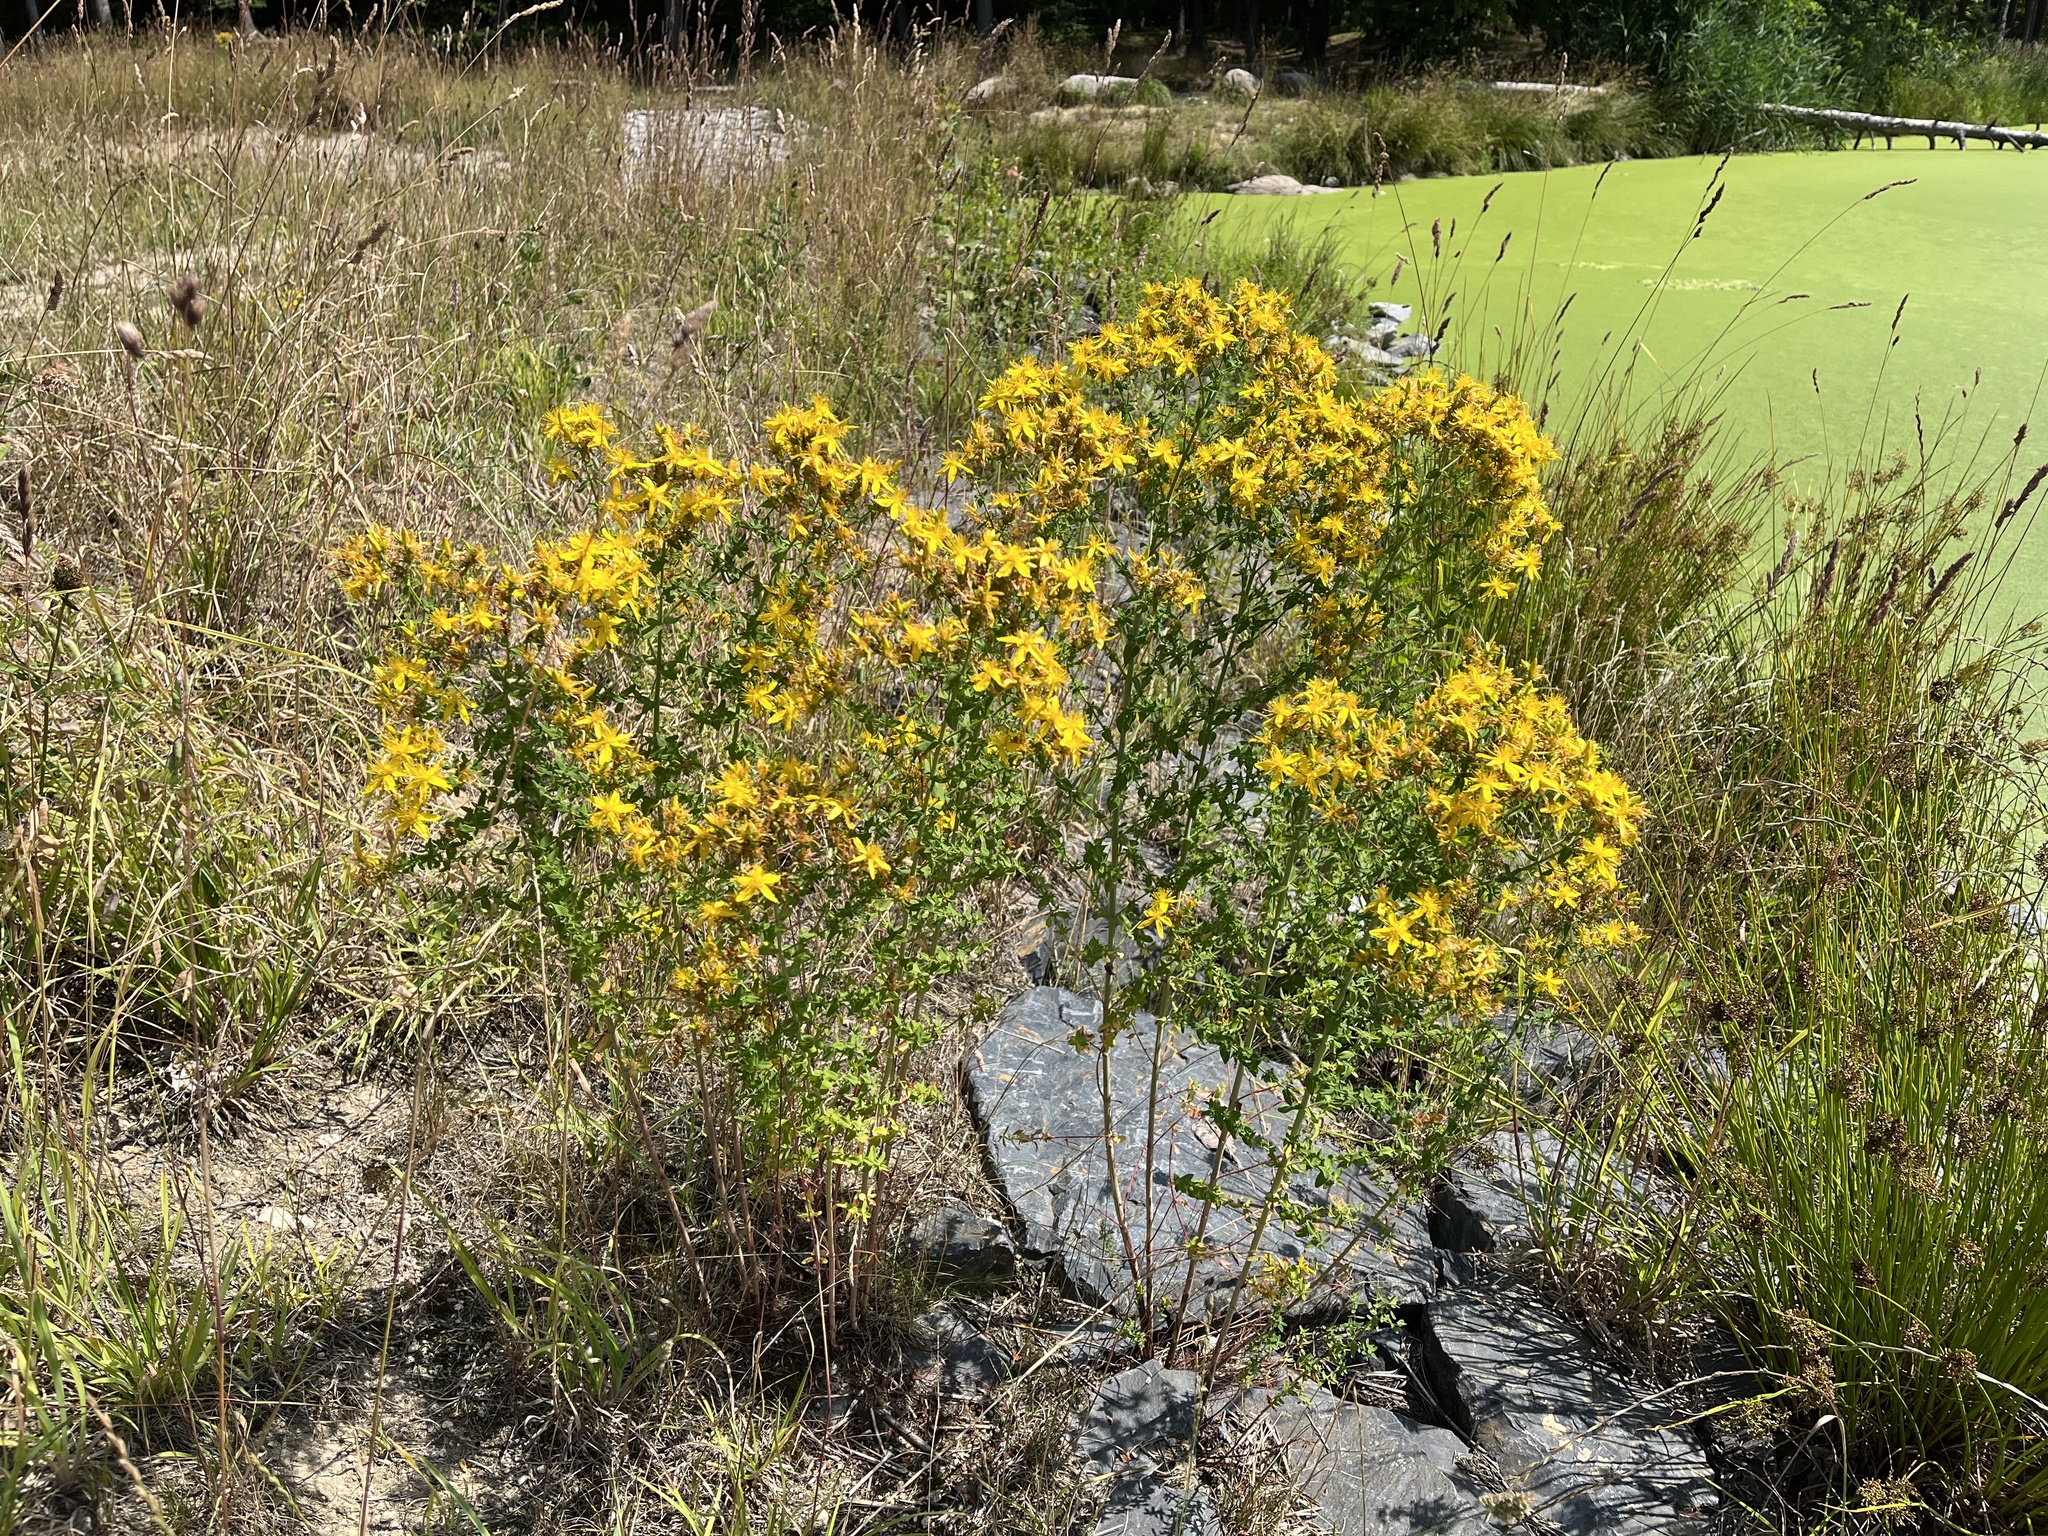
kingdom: Plantae
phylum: Tracheophyta
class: Magnoliopsida
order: Malpighiales
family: Hypericaceae
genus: Hypericum
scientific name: Hypericum perforatum
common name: Common st. johnswort
